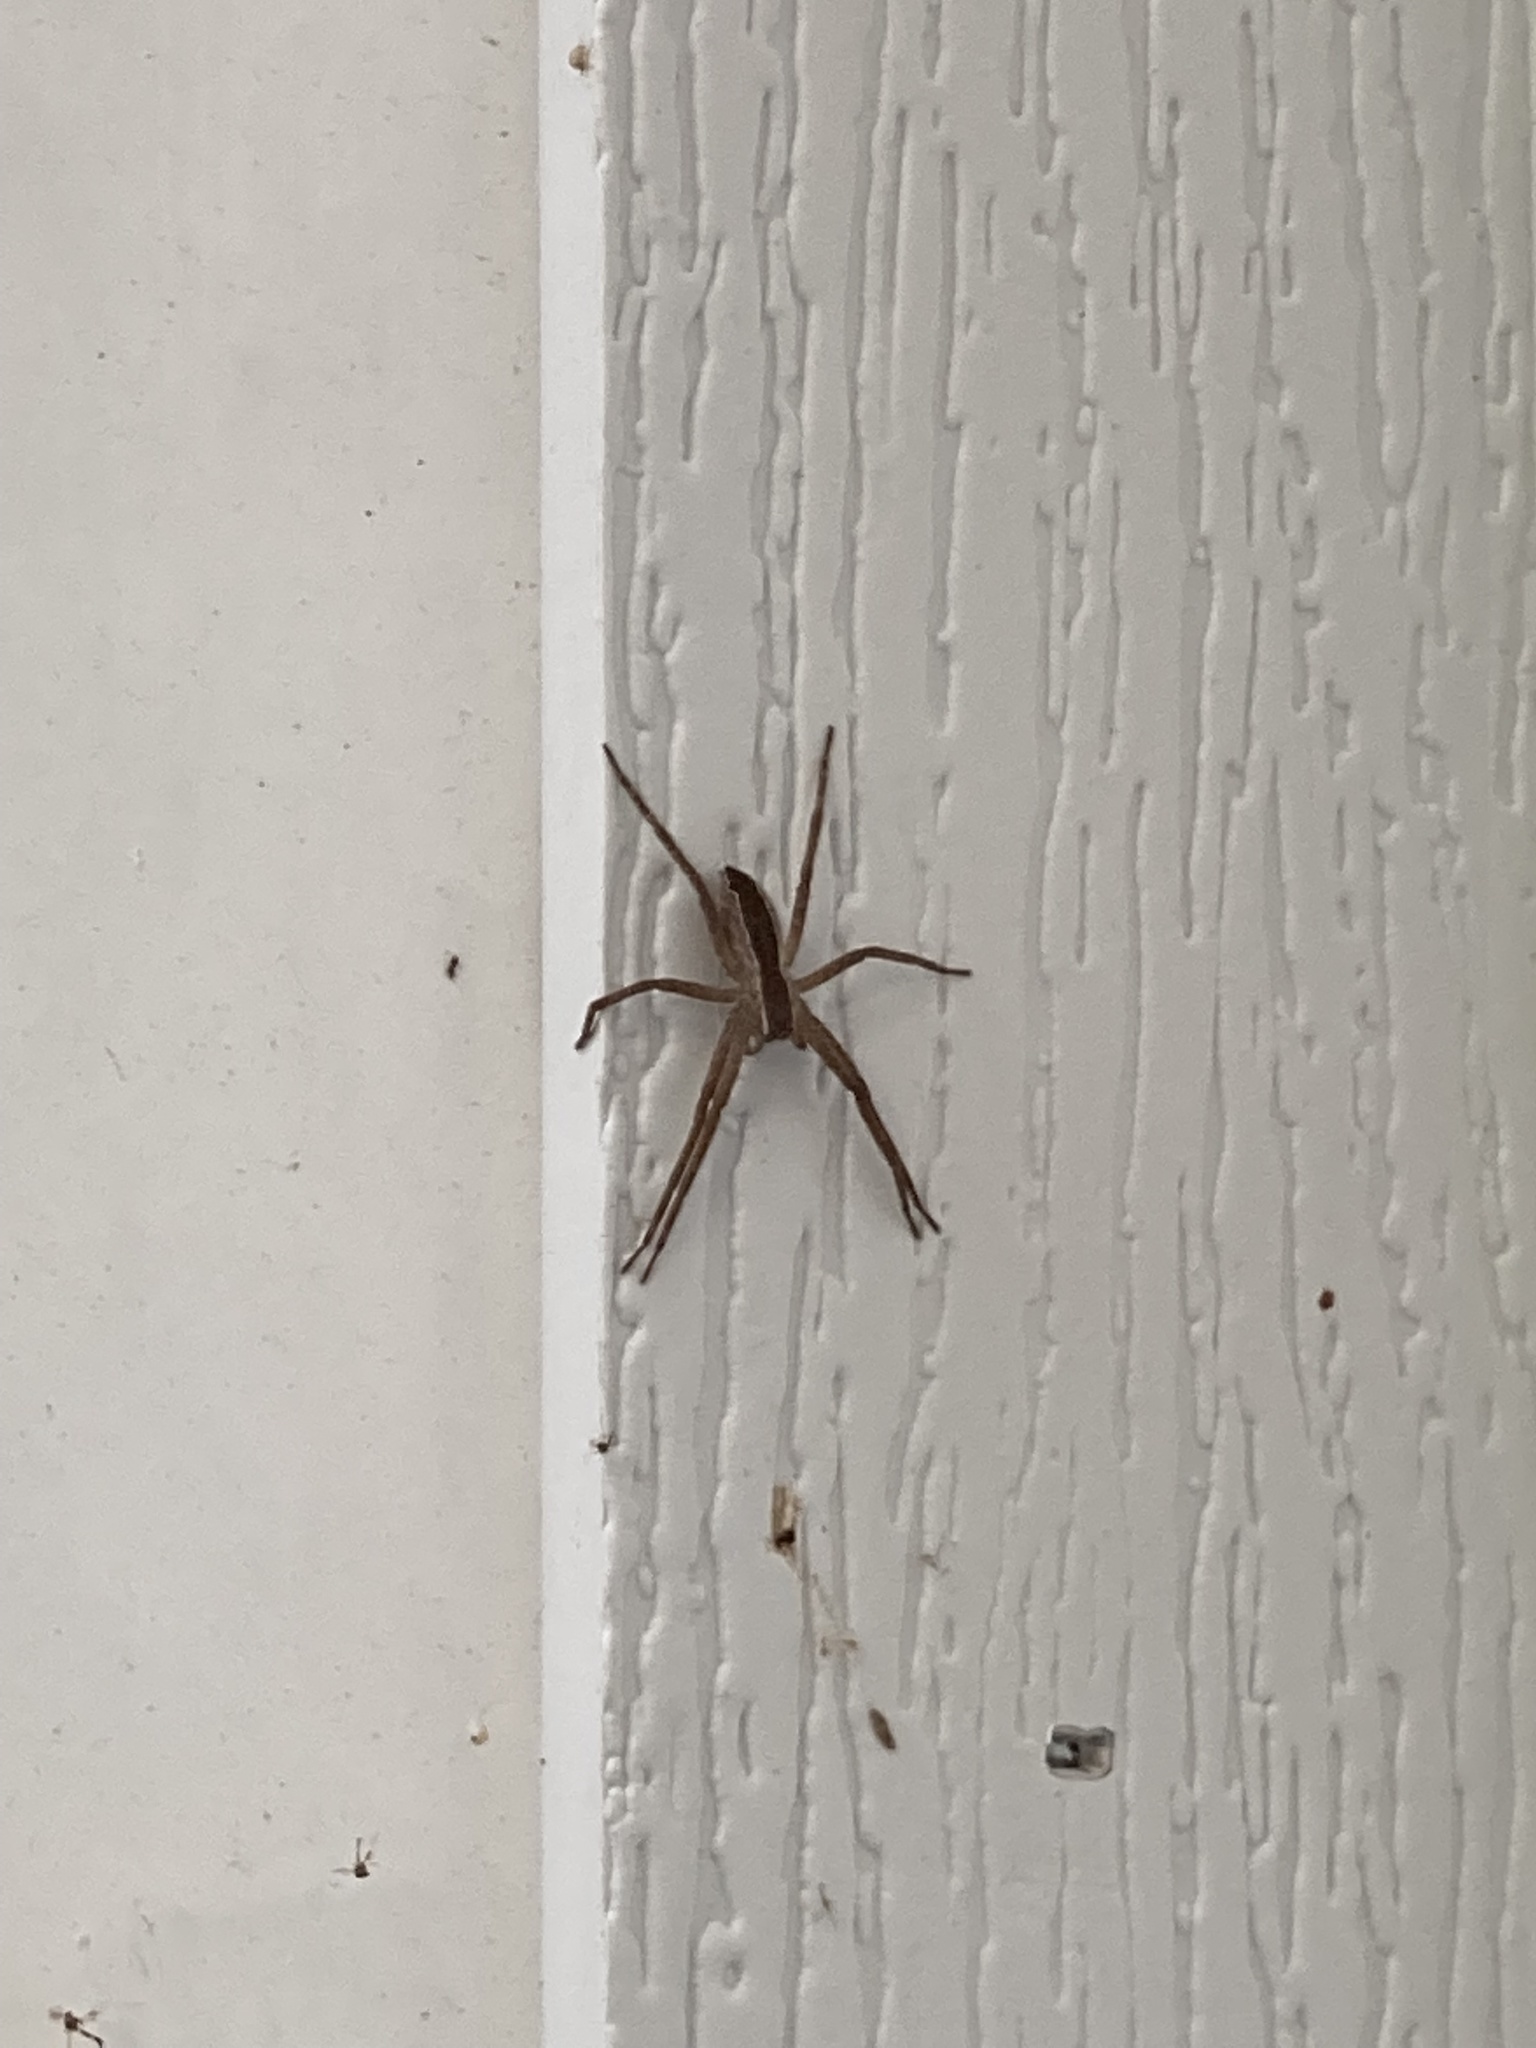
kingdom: Animalia
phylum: Arthropoda
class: Arachnida
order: Araneae
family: Pisauridae
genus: Pisaurina
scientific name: Pisaurina mira
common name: American nursery web spider
